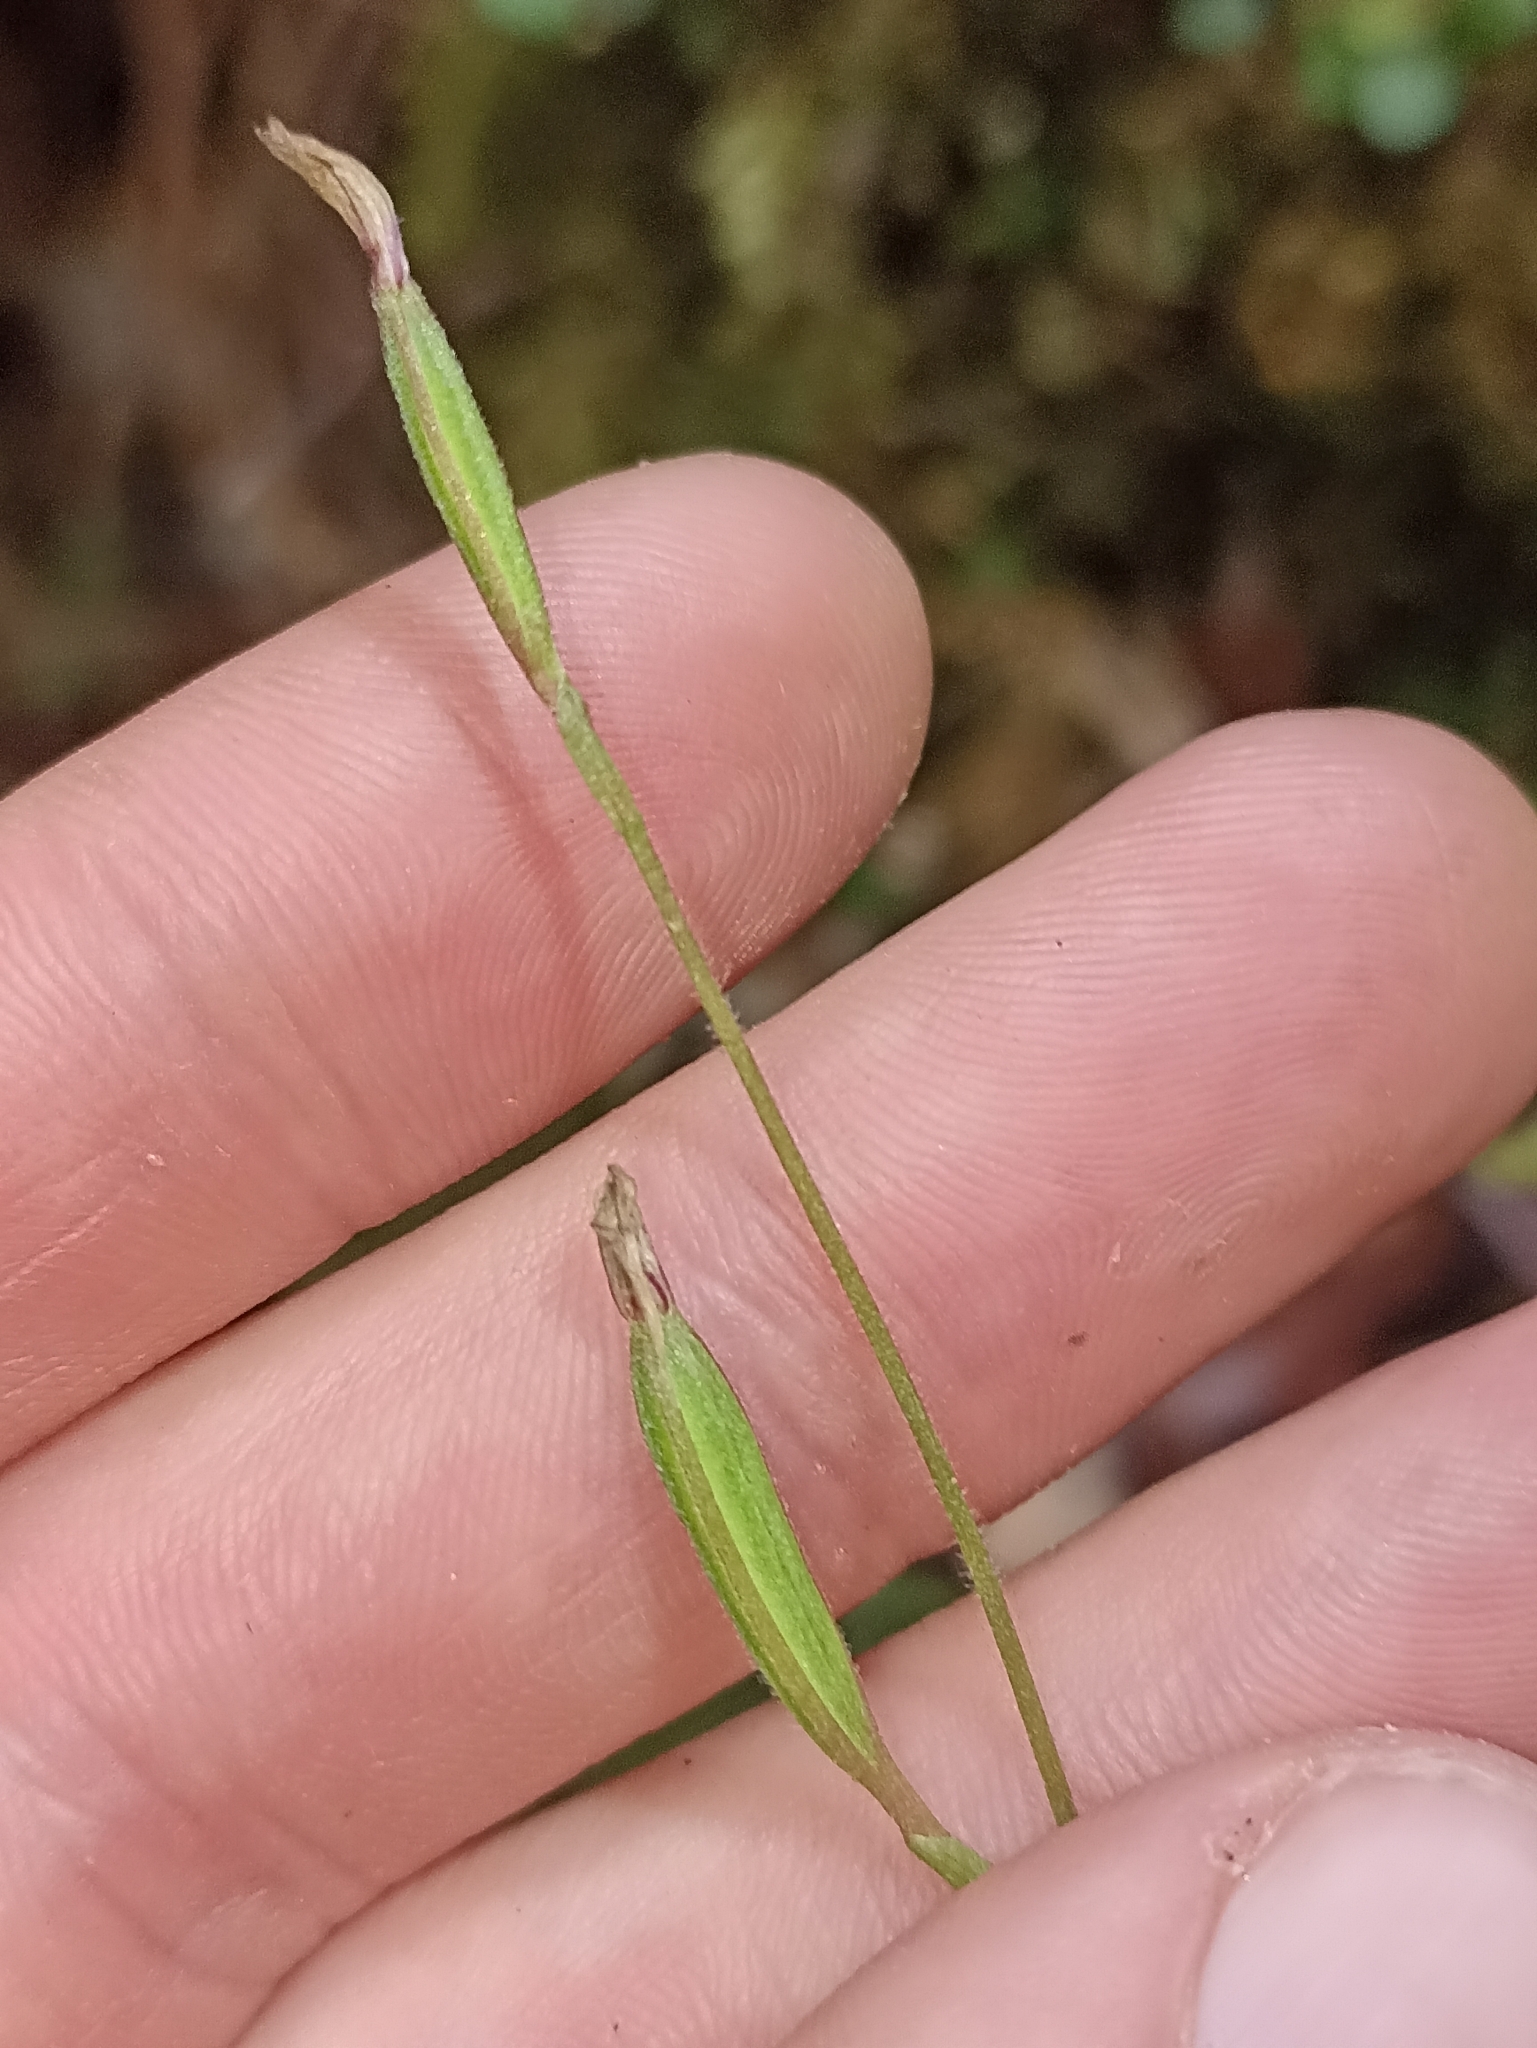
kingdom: Plantae
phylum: Tracheophyta
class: Liliopsida
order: Asparagales
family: Orchidaceae
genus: Caladenia
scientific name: Caladenia chlorostyla
